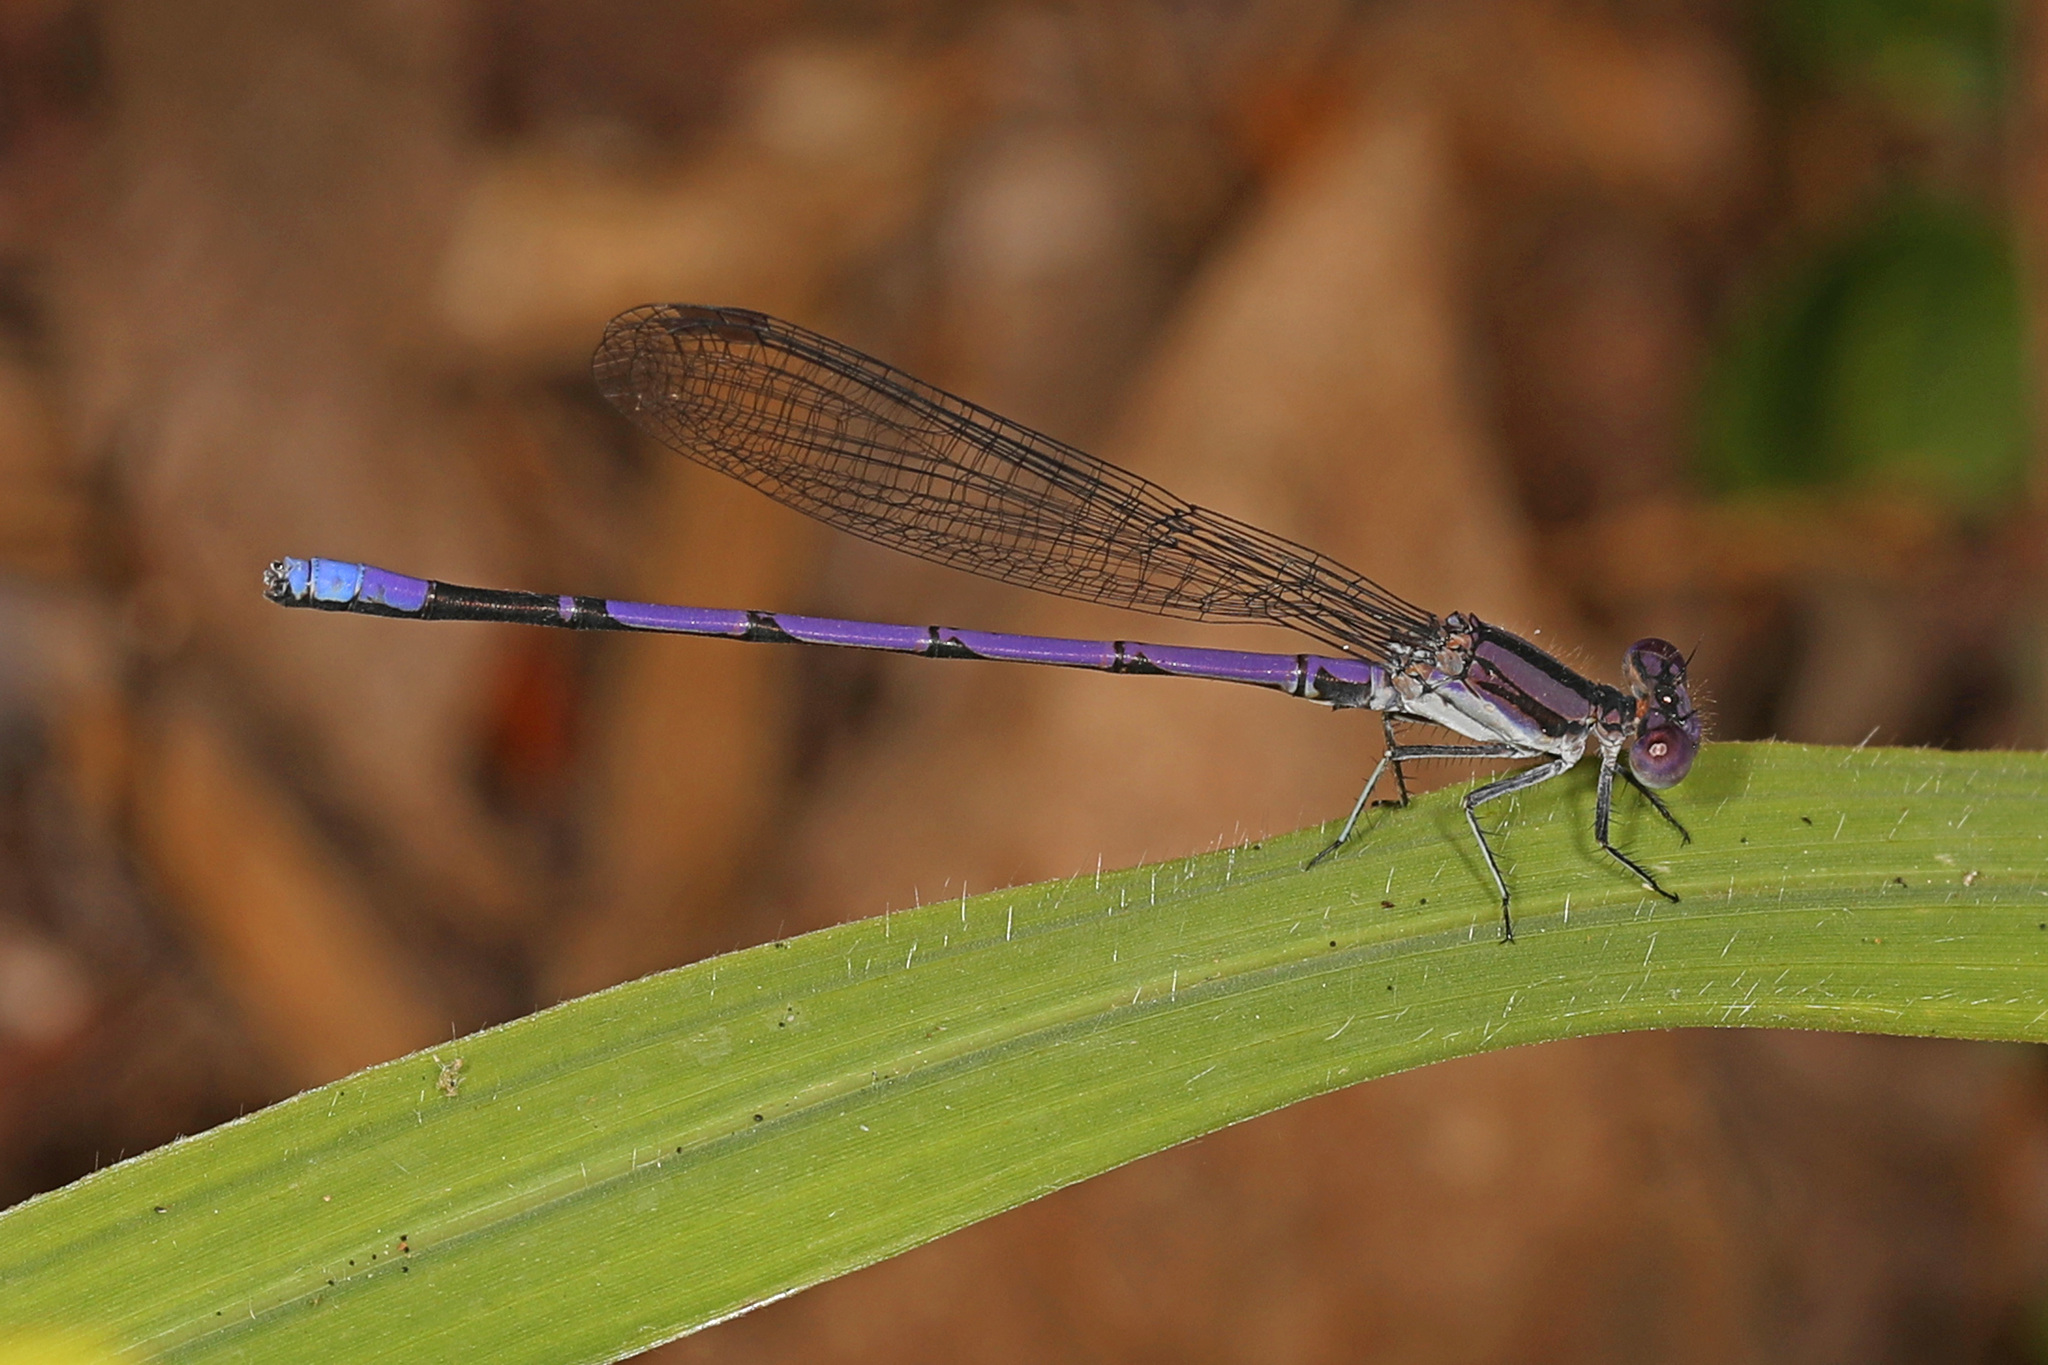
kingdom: Animalia
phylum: Arthropoda
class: Insecta
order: Odonata
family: Coenagrionidae
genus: Argia
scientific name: Argia fumipennis
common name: Variable dancer
